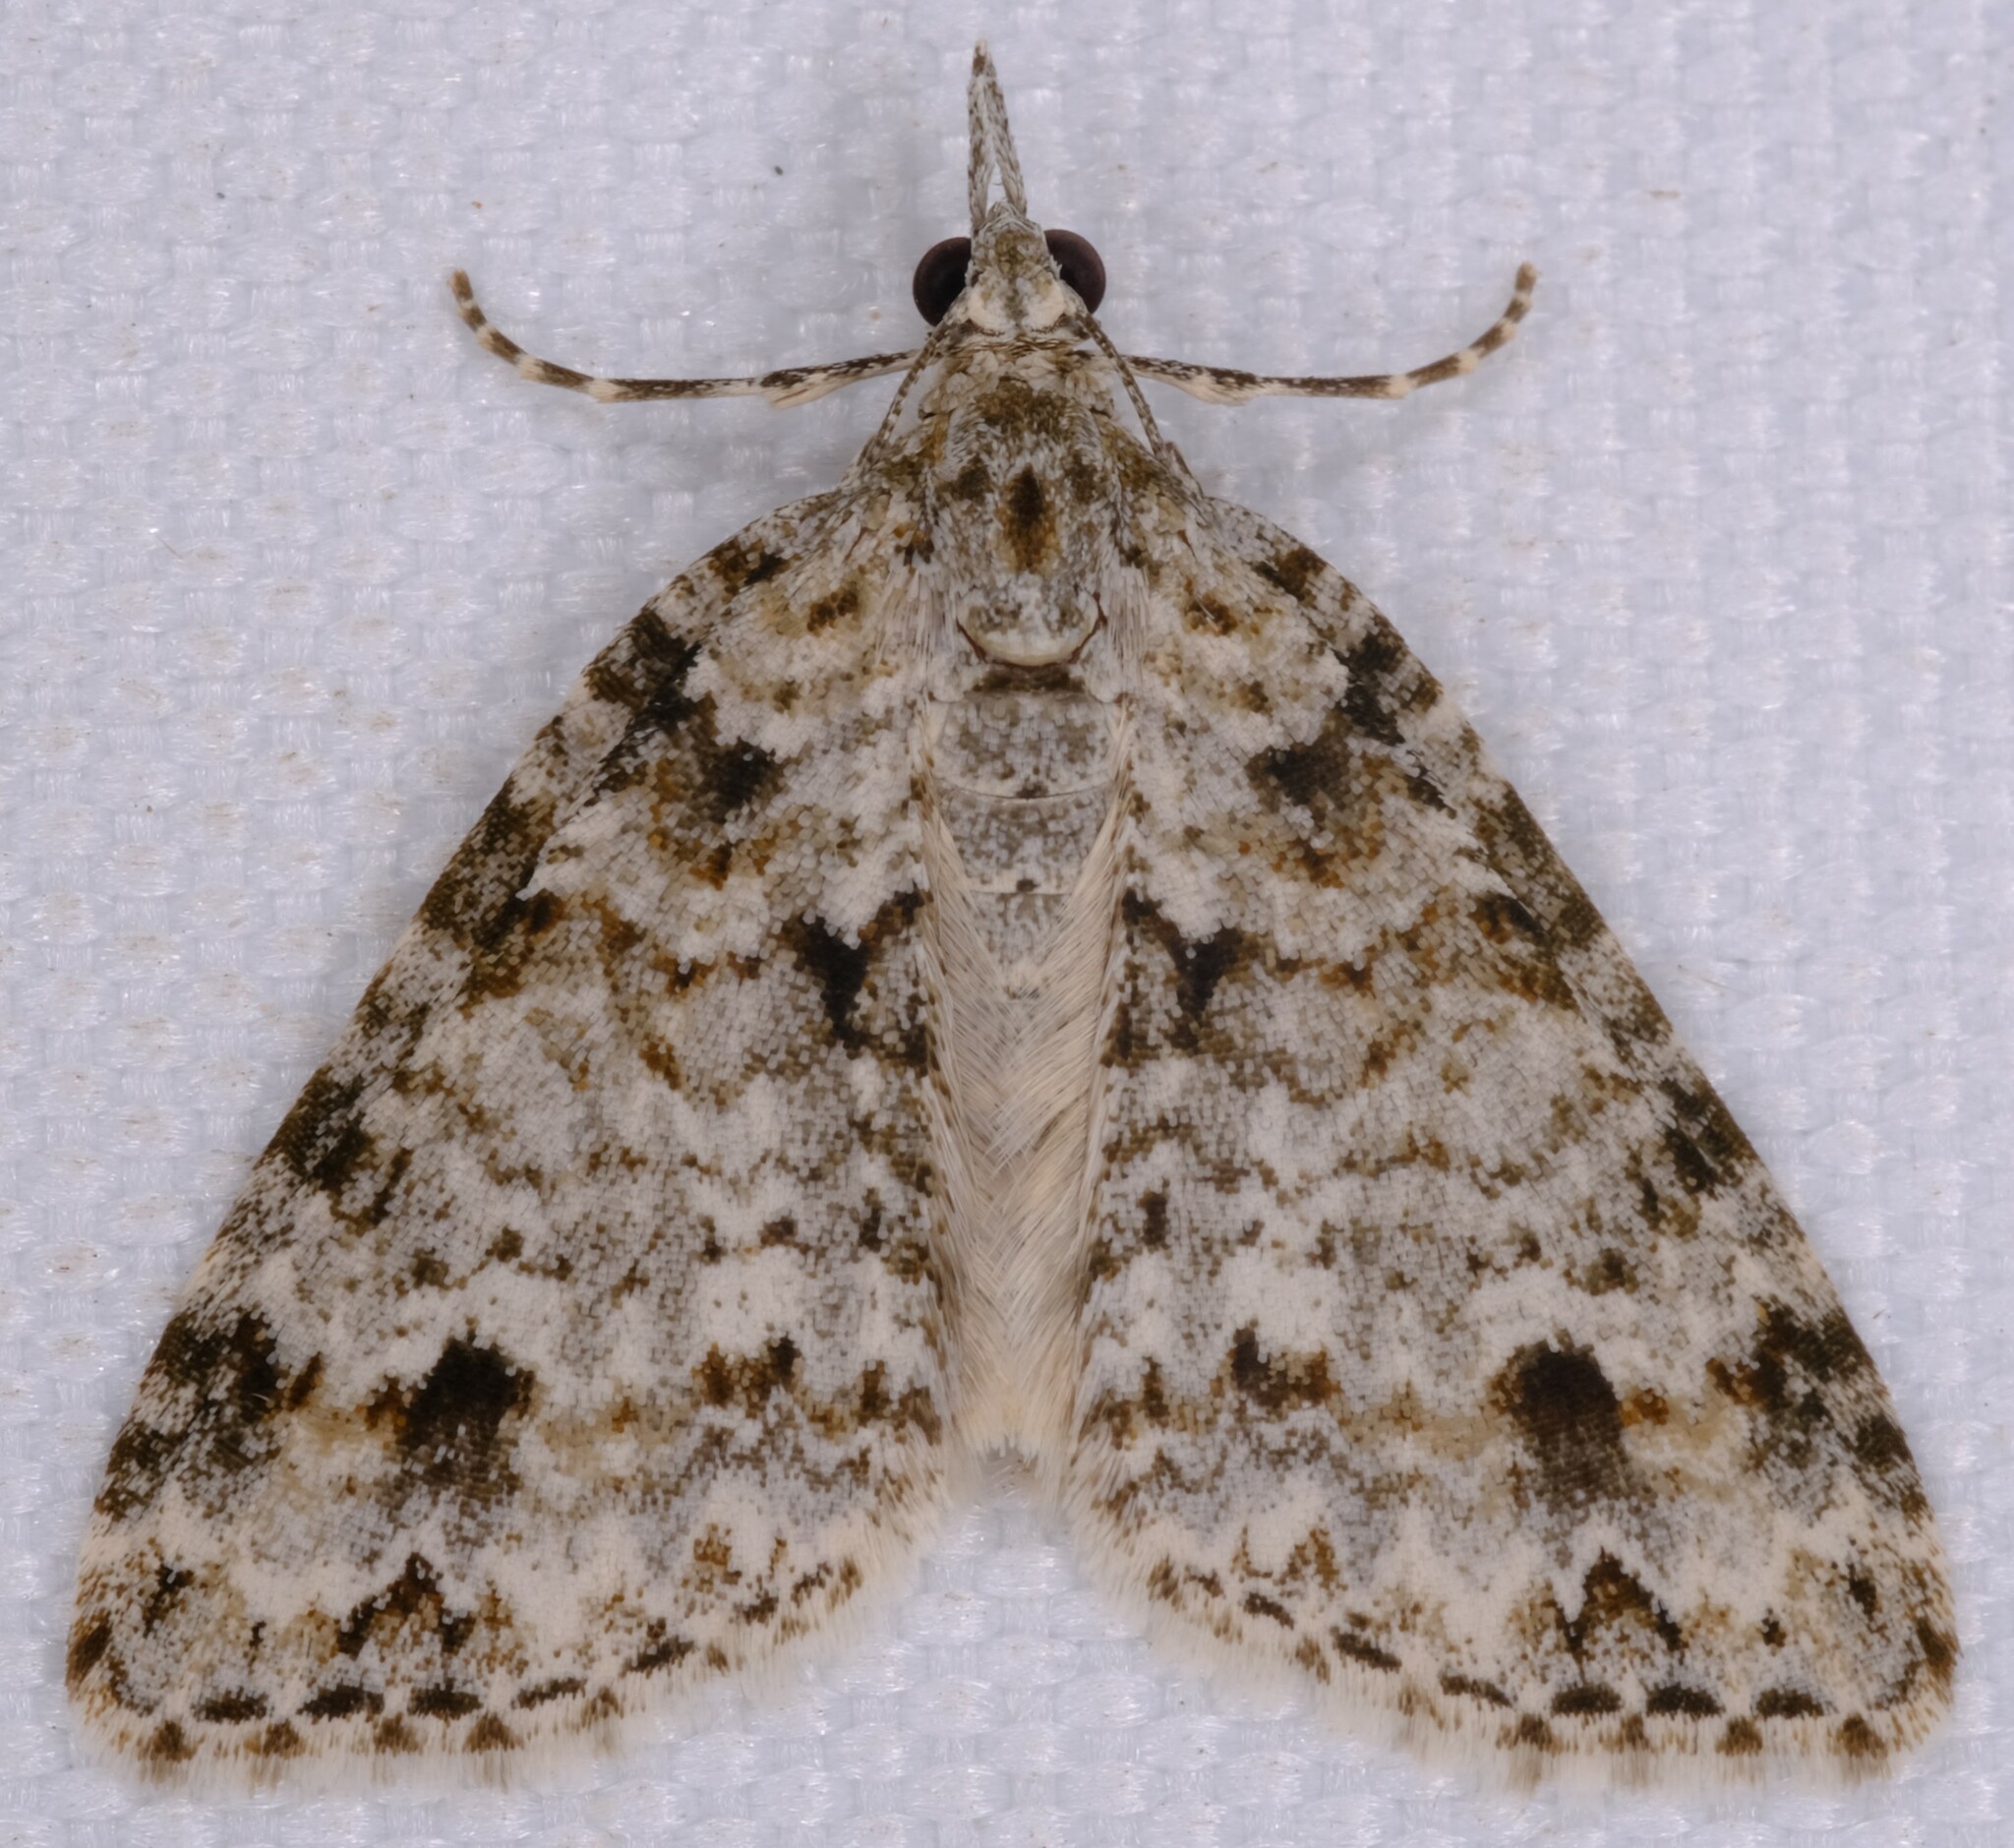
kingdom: Animalia
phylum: Arthropoda
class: Insecta
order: Lepidoptera
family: Geometridae
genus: Microdes
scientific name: Microdes villosata
